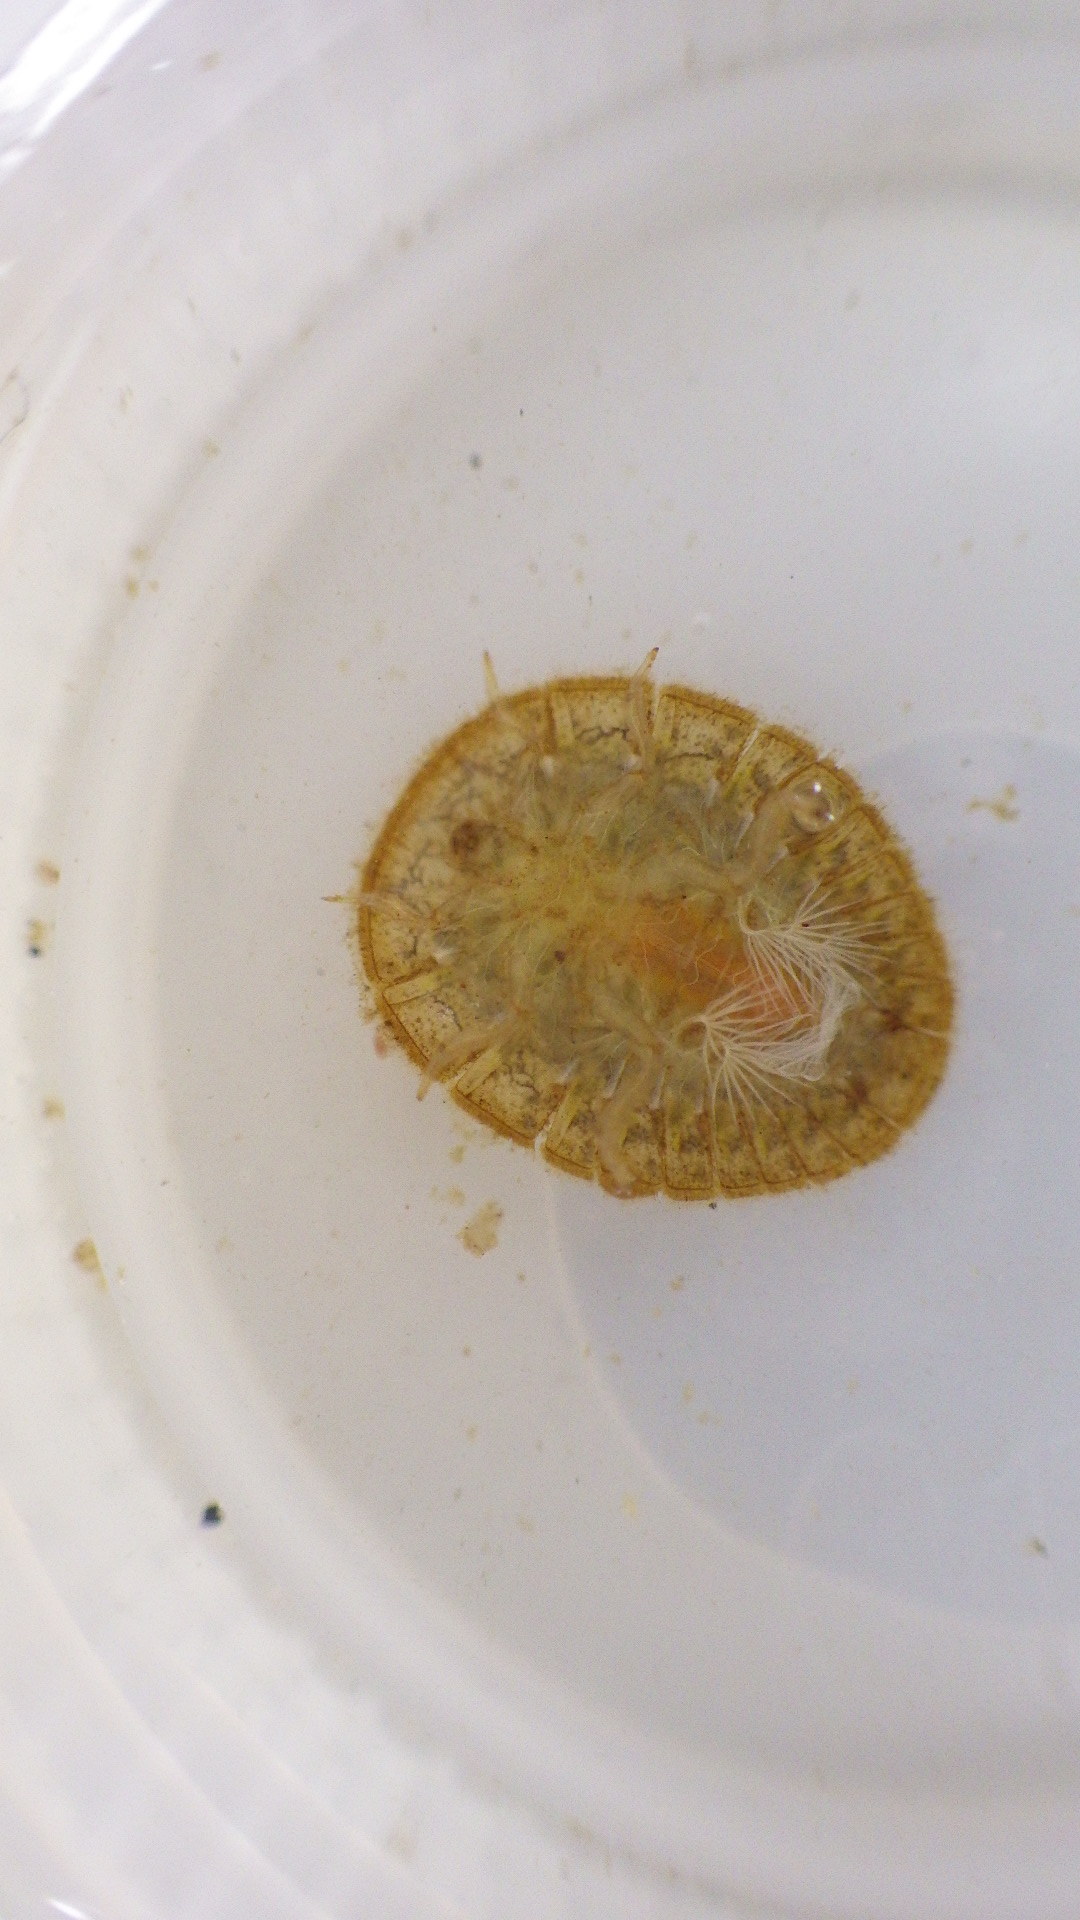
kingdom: Animalia
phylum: Arthropoda
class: Insecta
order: Coleoptera
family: Psephenidae
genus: Psephenus
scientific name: Psephenus herricki
